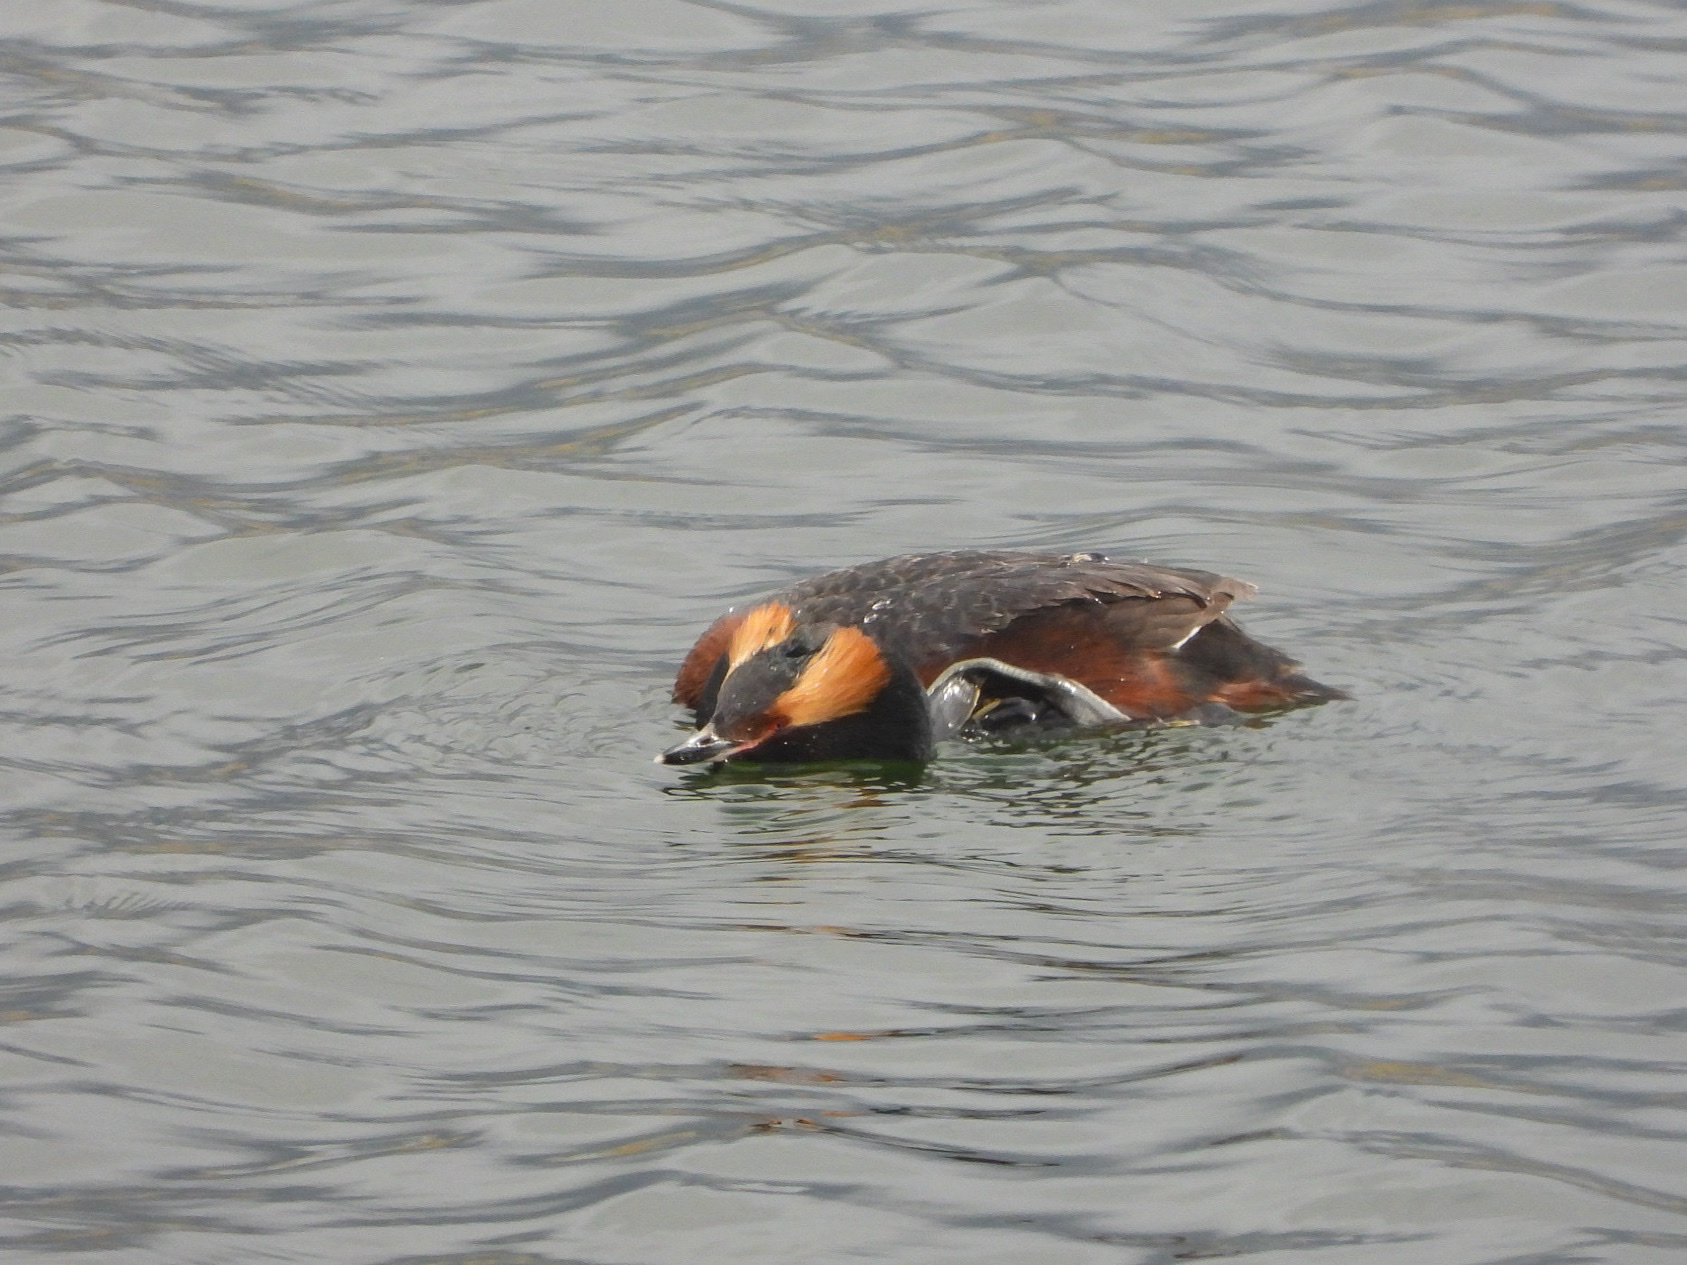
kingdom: Animalia
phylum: Chordata
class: Aves
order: Podicipediformes
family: Podicipedidae
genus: Podiceps
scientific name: Podiceps auritus
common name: Horned grebe
